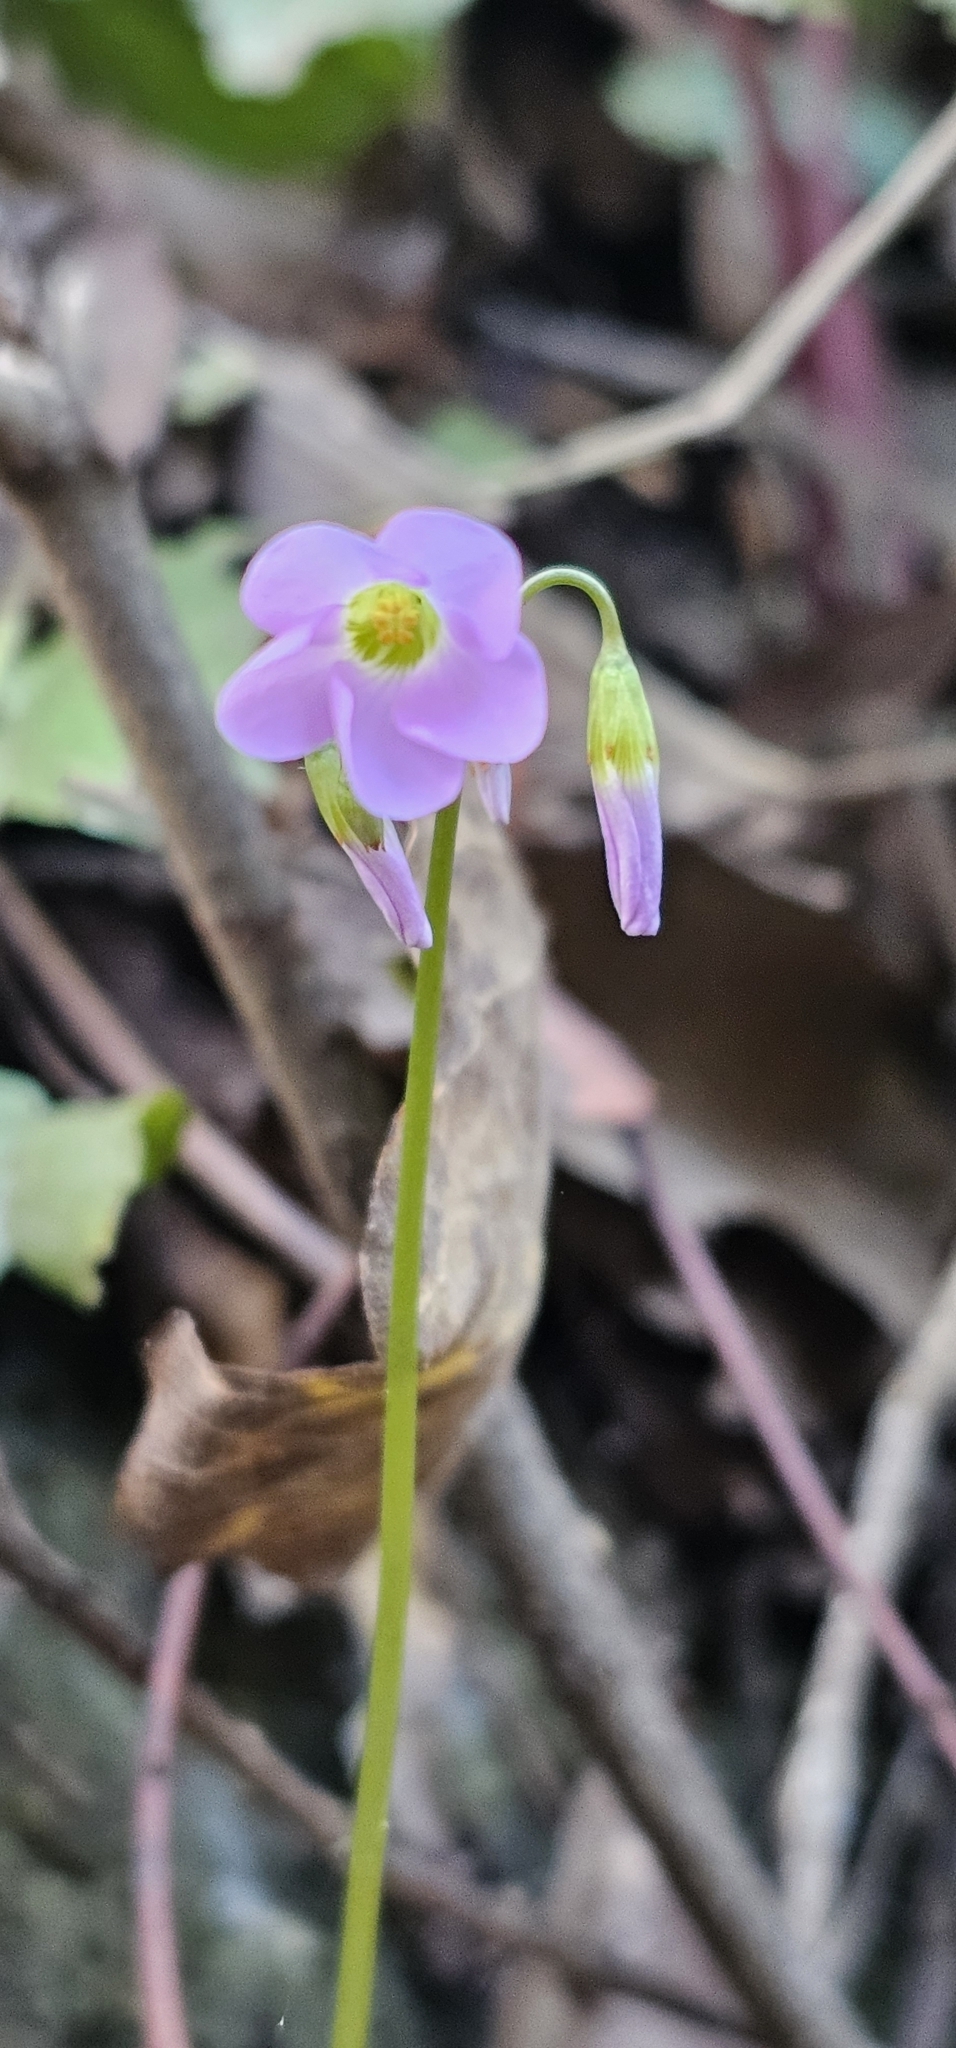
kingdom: Plantae
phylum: Tracheophyta
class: Magnoliopsida
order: Oxalidales
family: Oxalidaceae
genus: Oxalis
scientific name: Oxalis violacea
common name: Violet wood-sorrel
